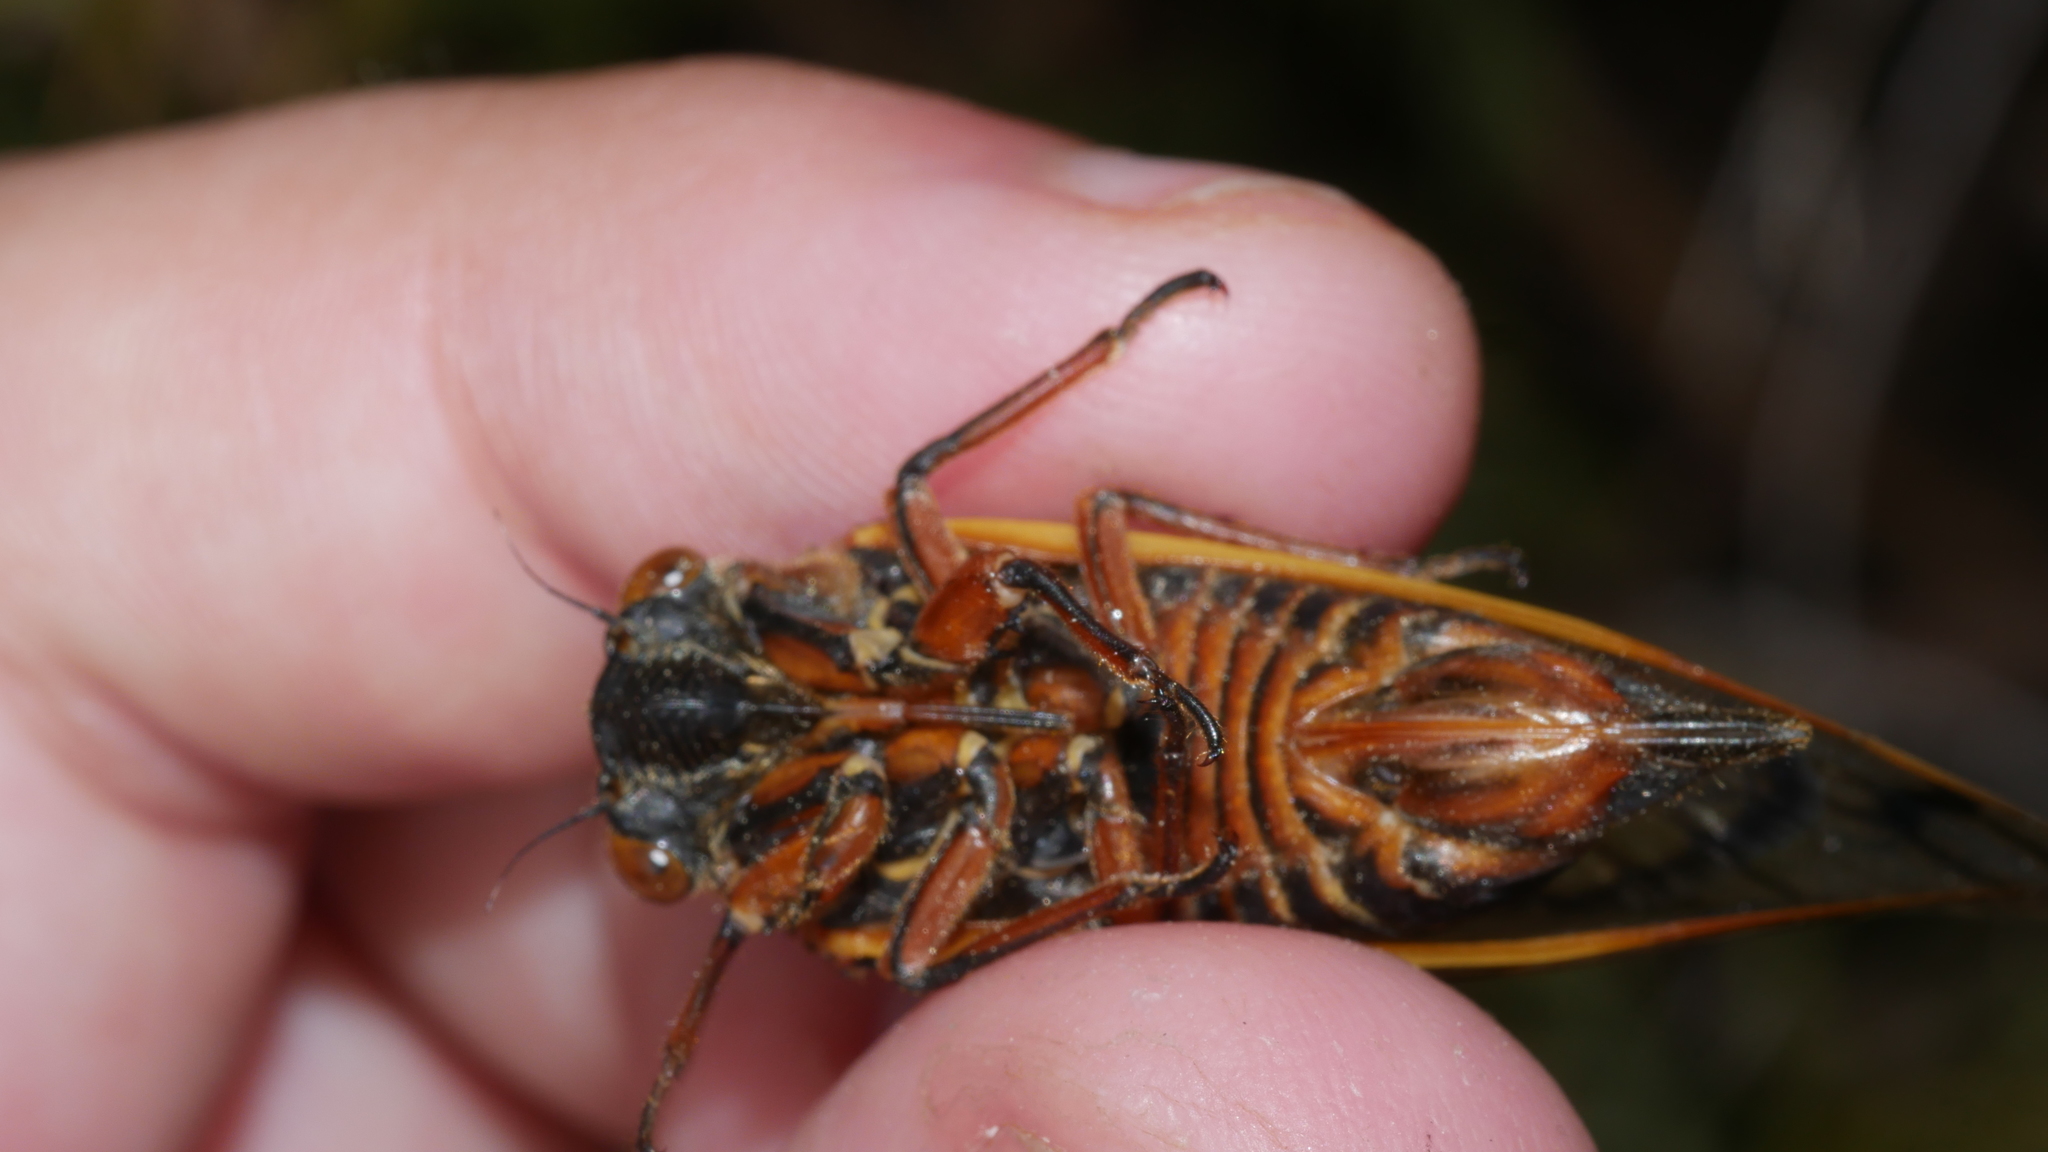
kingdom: Animalia
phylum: Arthropoda
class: Insecta
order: Hemiptera
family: Cicadidae
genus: Magicicada
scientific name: Magicicada septendecim
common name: Periodical cicada
